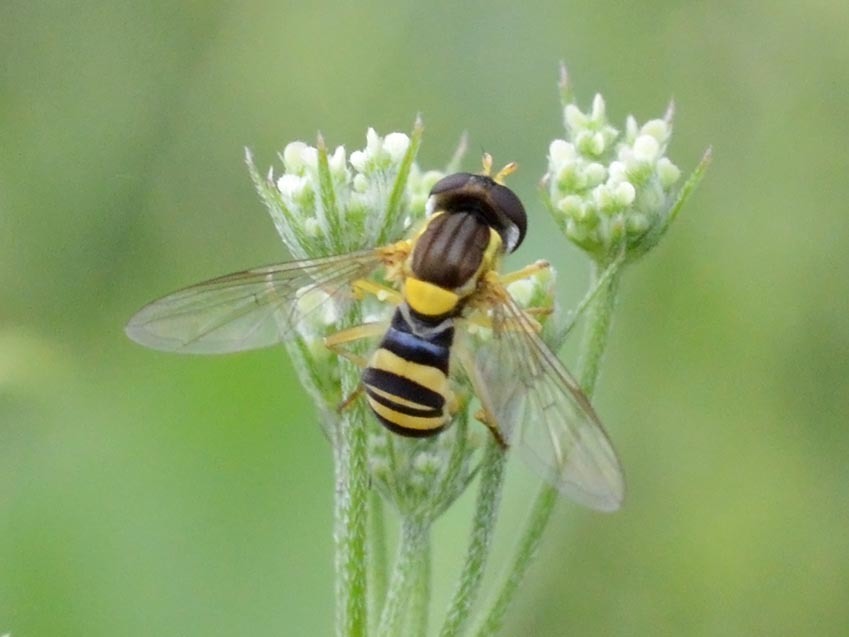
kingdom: Animalia
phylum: Arthropoda
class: Insecta
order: Diptera
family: Syrphidae
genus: Sphaerophoria
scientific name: Sphaerophoria
